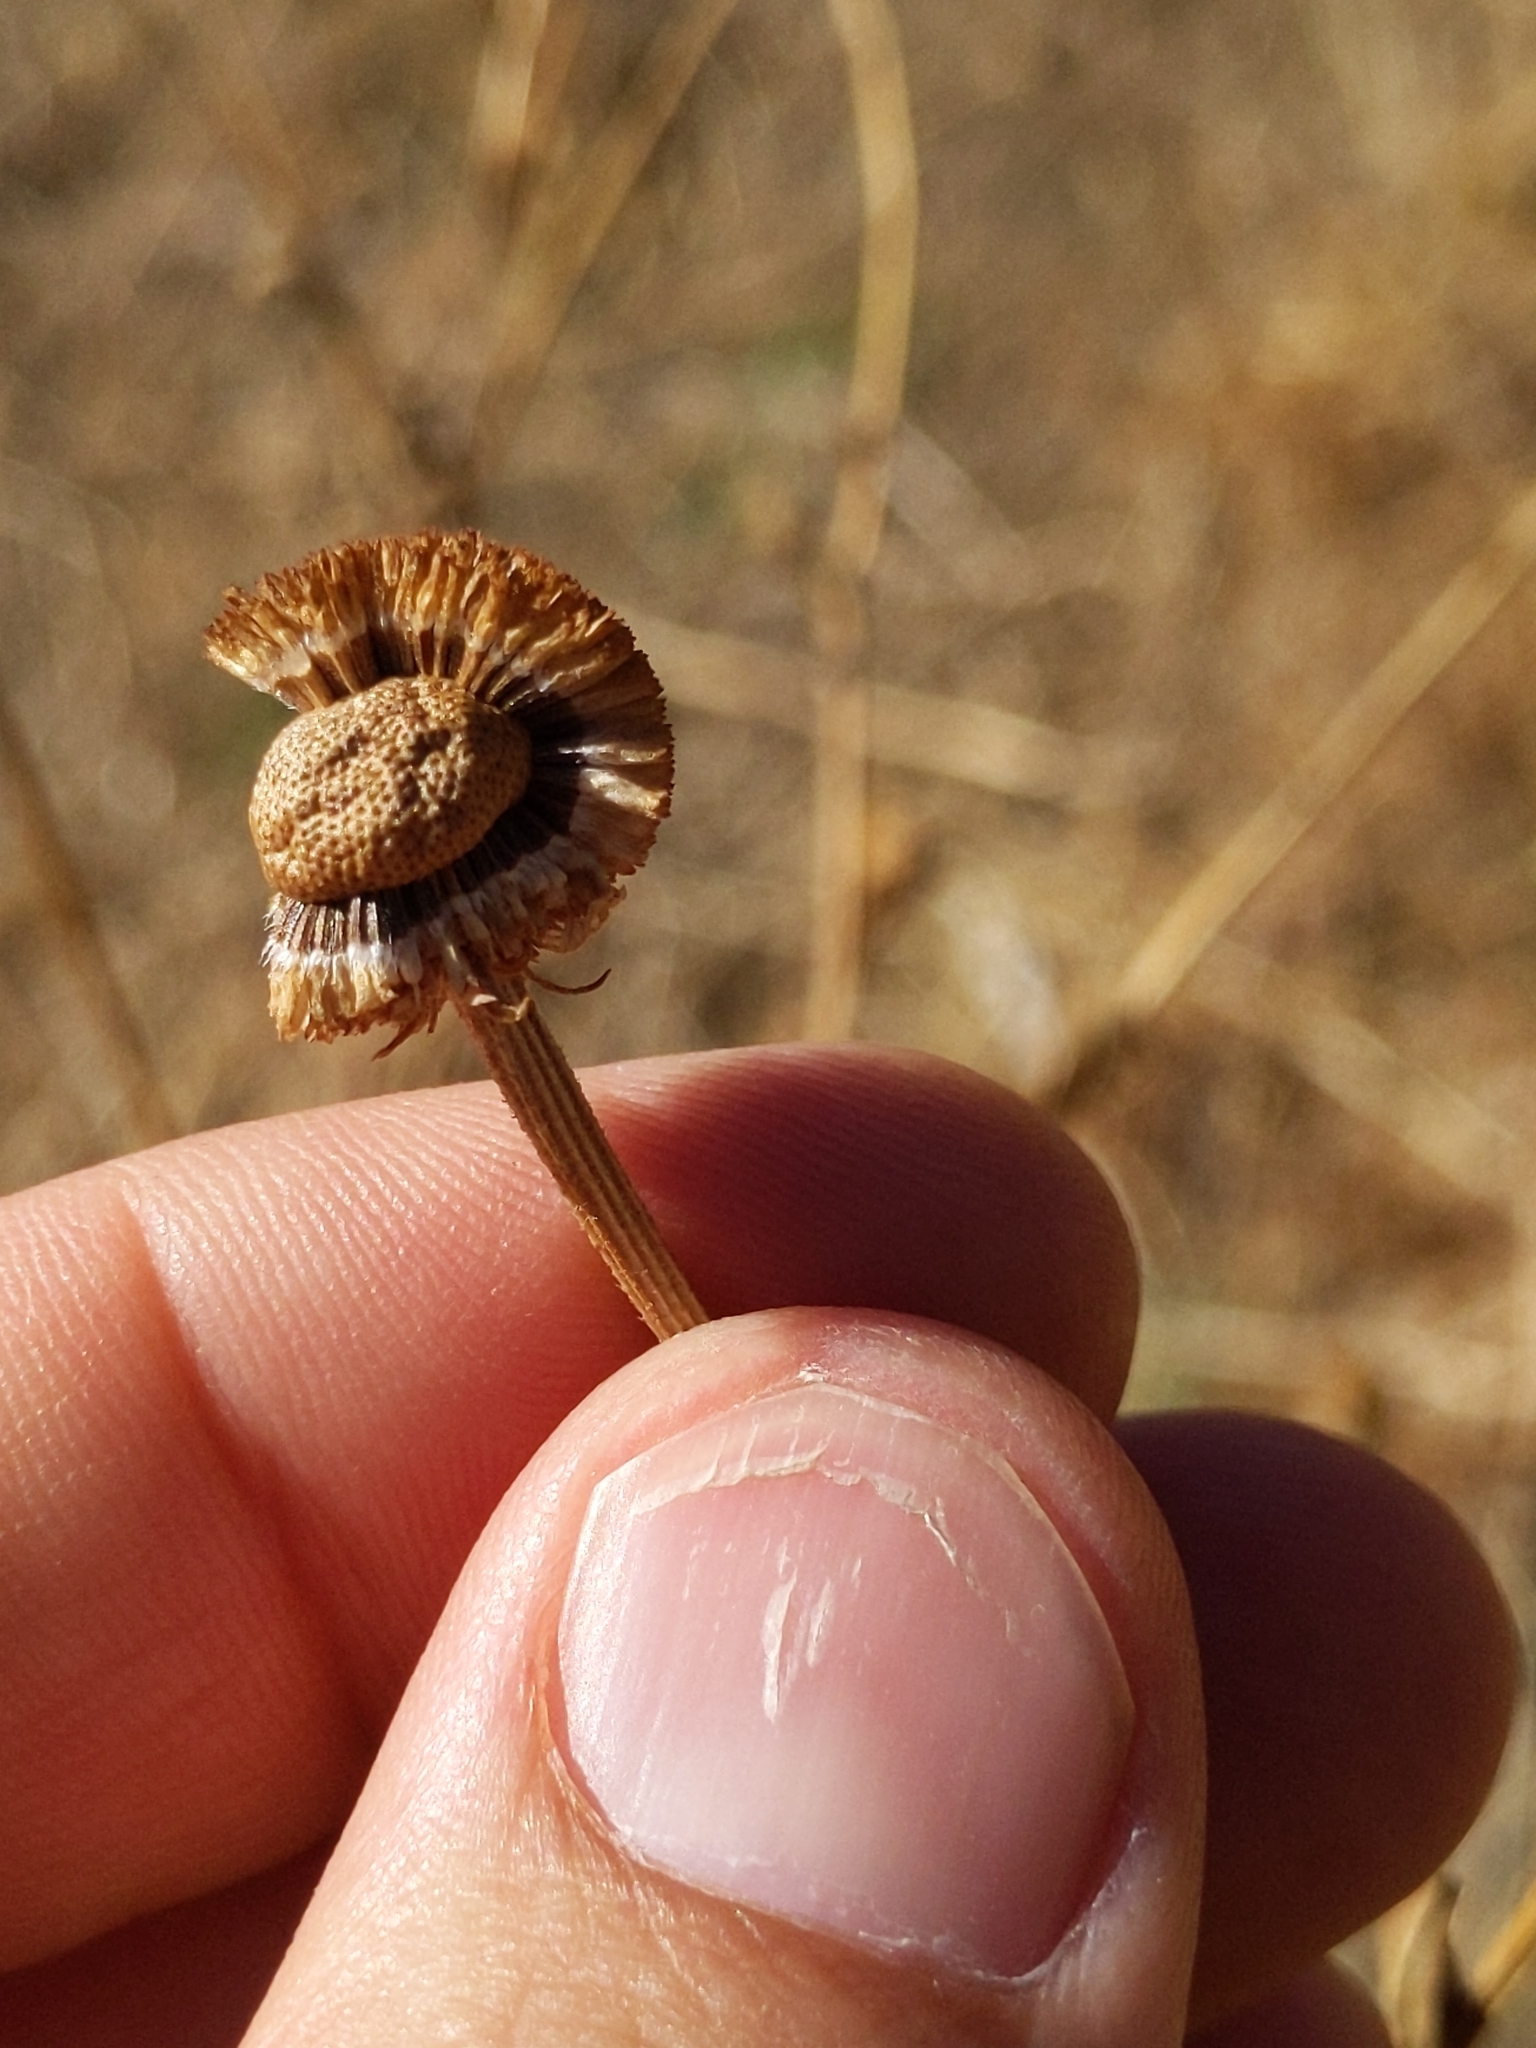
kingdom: Plantae
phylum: Tracheophyta
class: Magnoliopsida
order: Asterales
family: Asteraceae
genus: Helenium
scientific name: Helenium puberulum
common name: Sneezewort
